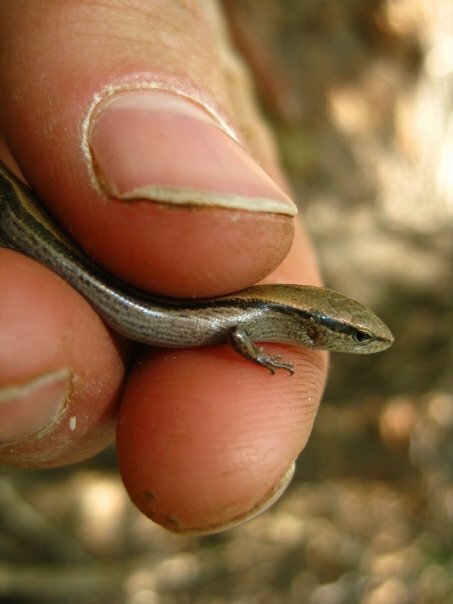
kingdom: Animalia
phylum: Chordata
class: Squamata
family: Scincidae
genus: Scincella
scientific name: Scincella lateralis
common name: Ground skink
